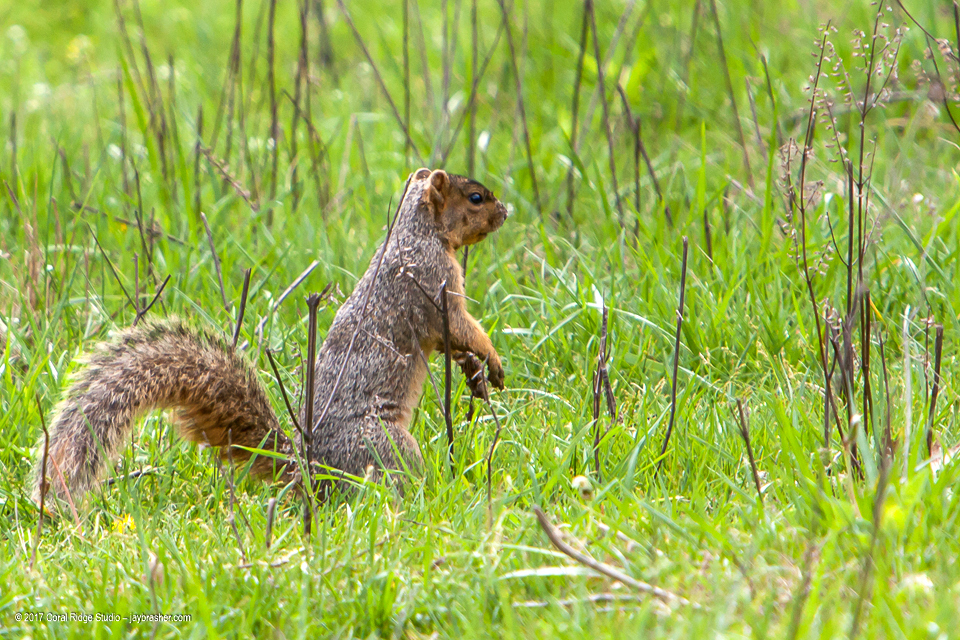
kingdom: Animalia
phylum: Chordata
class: Mammalia
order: Rodentia
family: Sciuridae
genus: Sciurus
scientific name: Sciurus niger
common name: Fox squirrel
